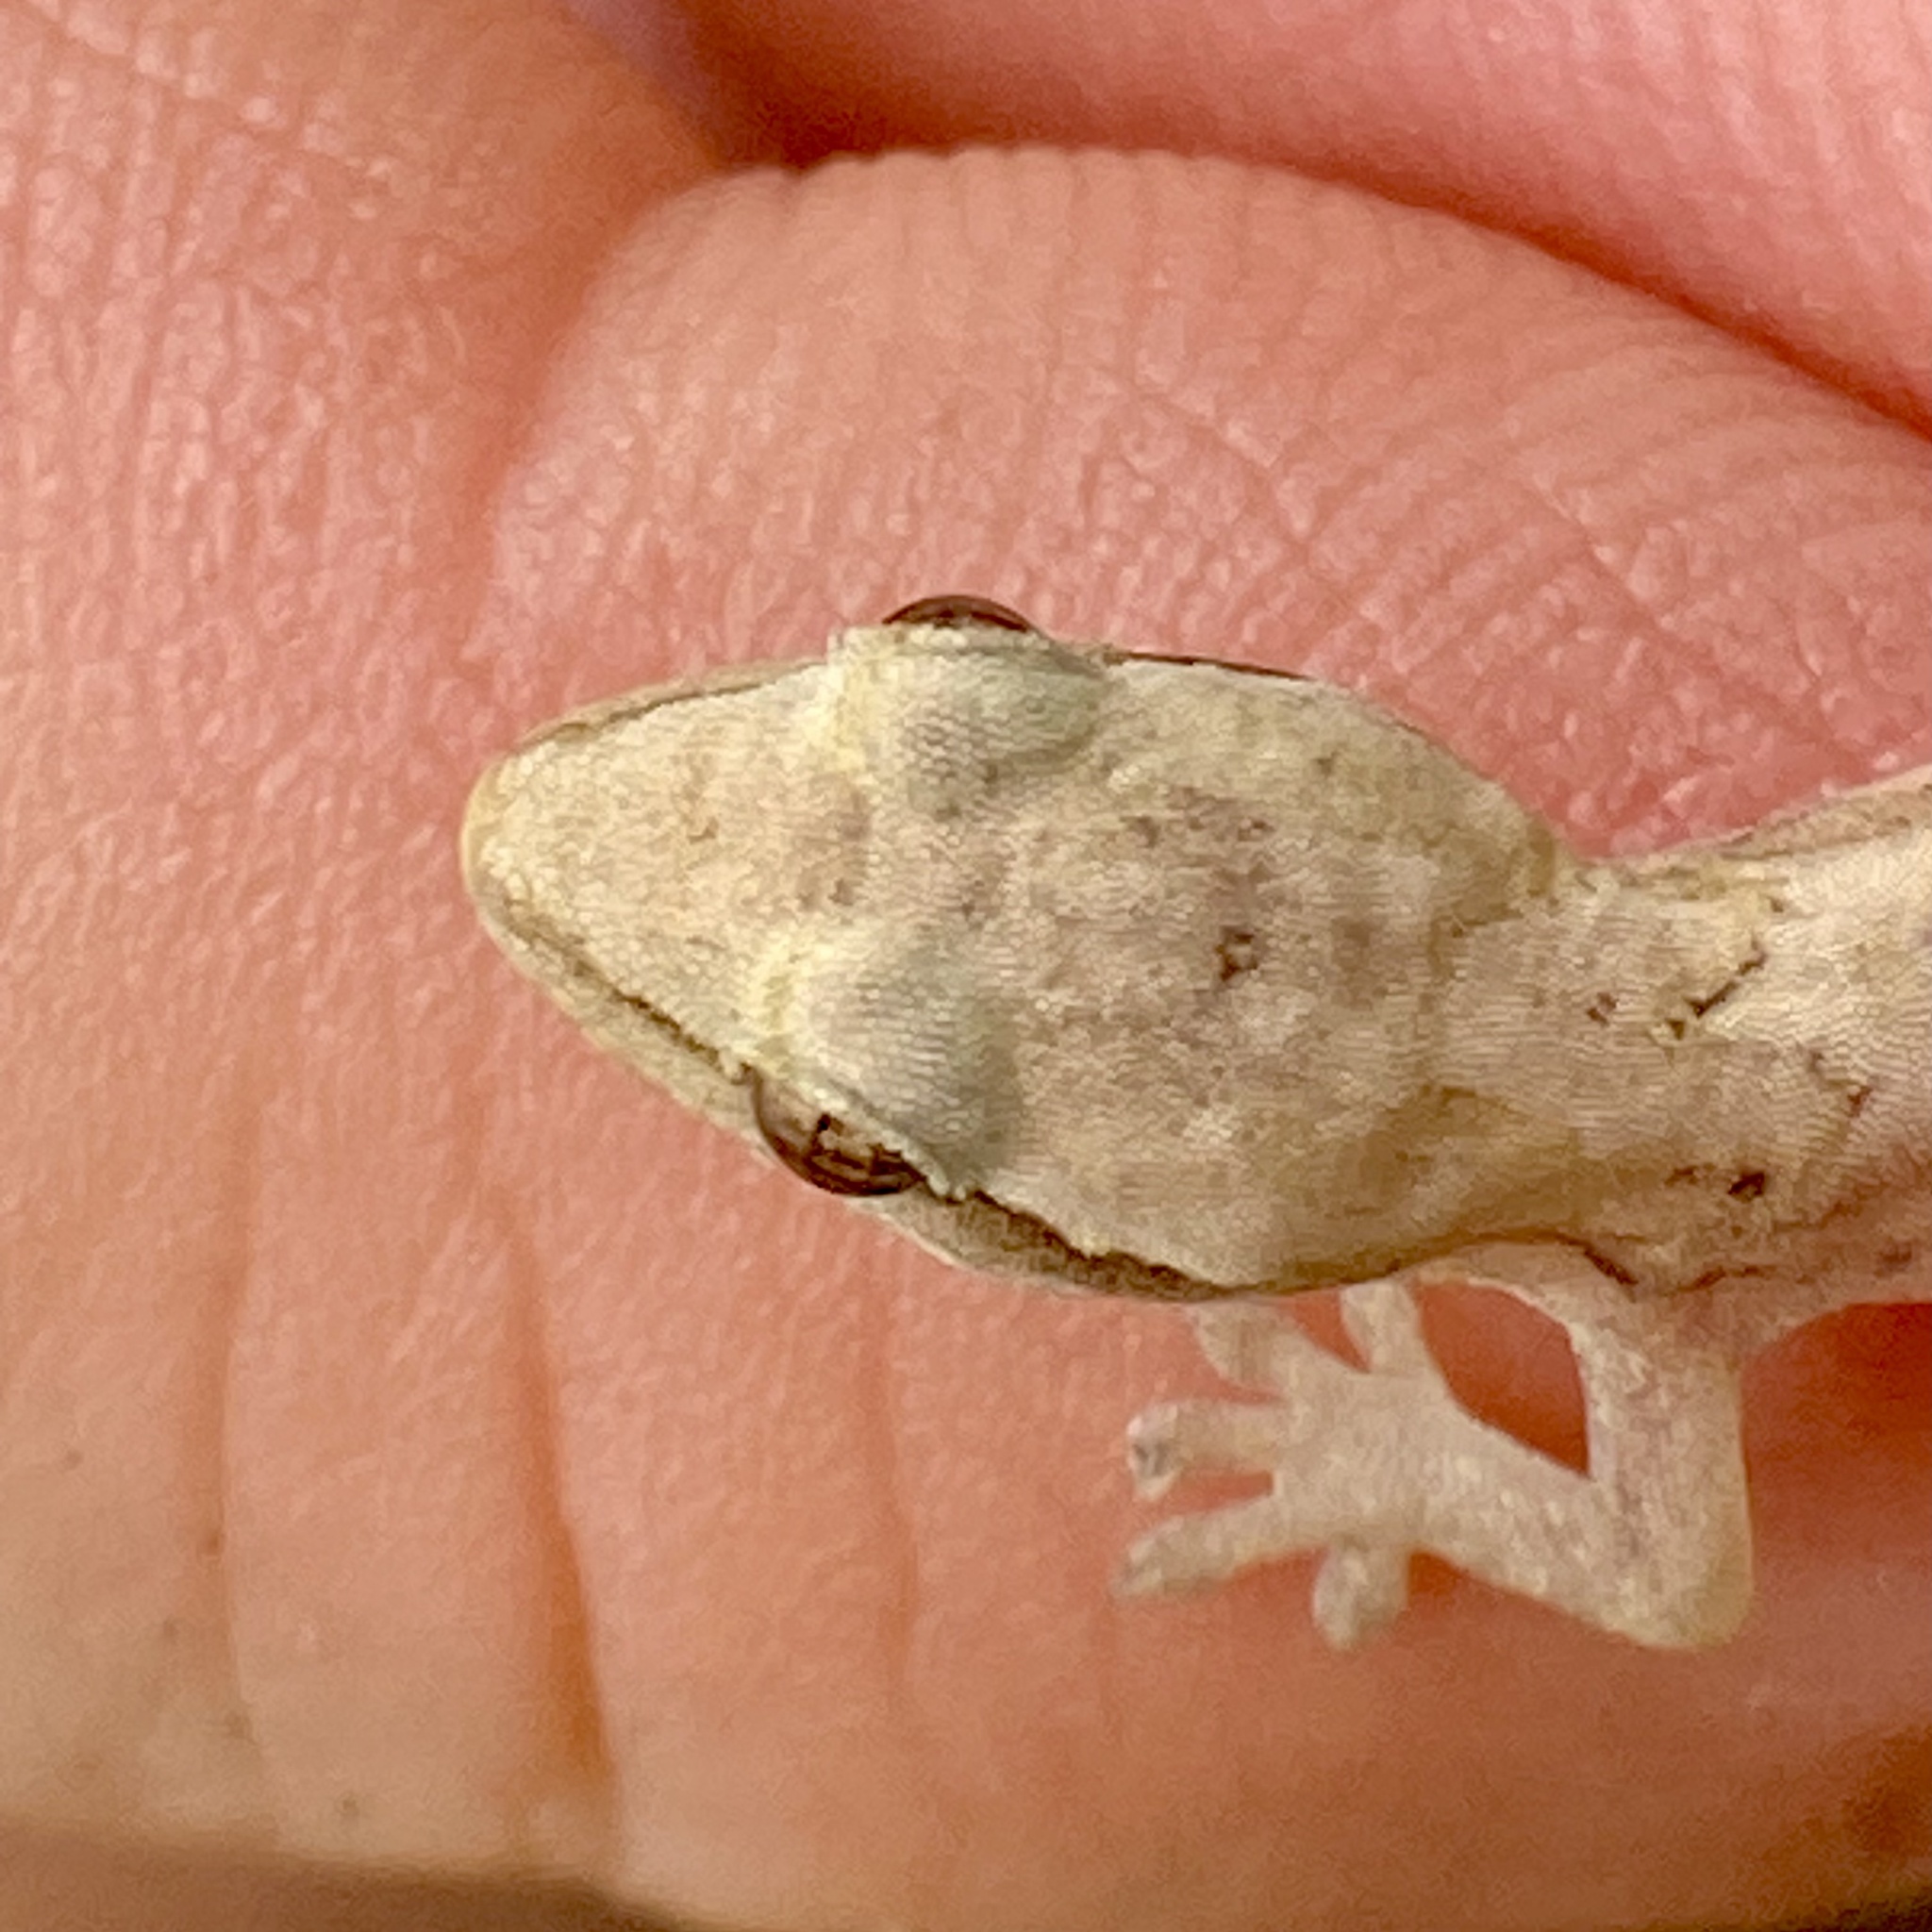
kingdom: Animalia
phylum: Chordata
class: Squamata
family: Gekkonidae
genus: Lepidodactylus
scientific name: Lepidodactylus lugubris
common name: Mourning gecko
